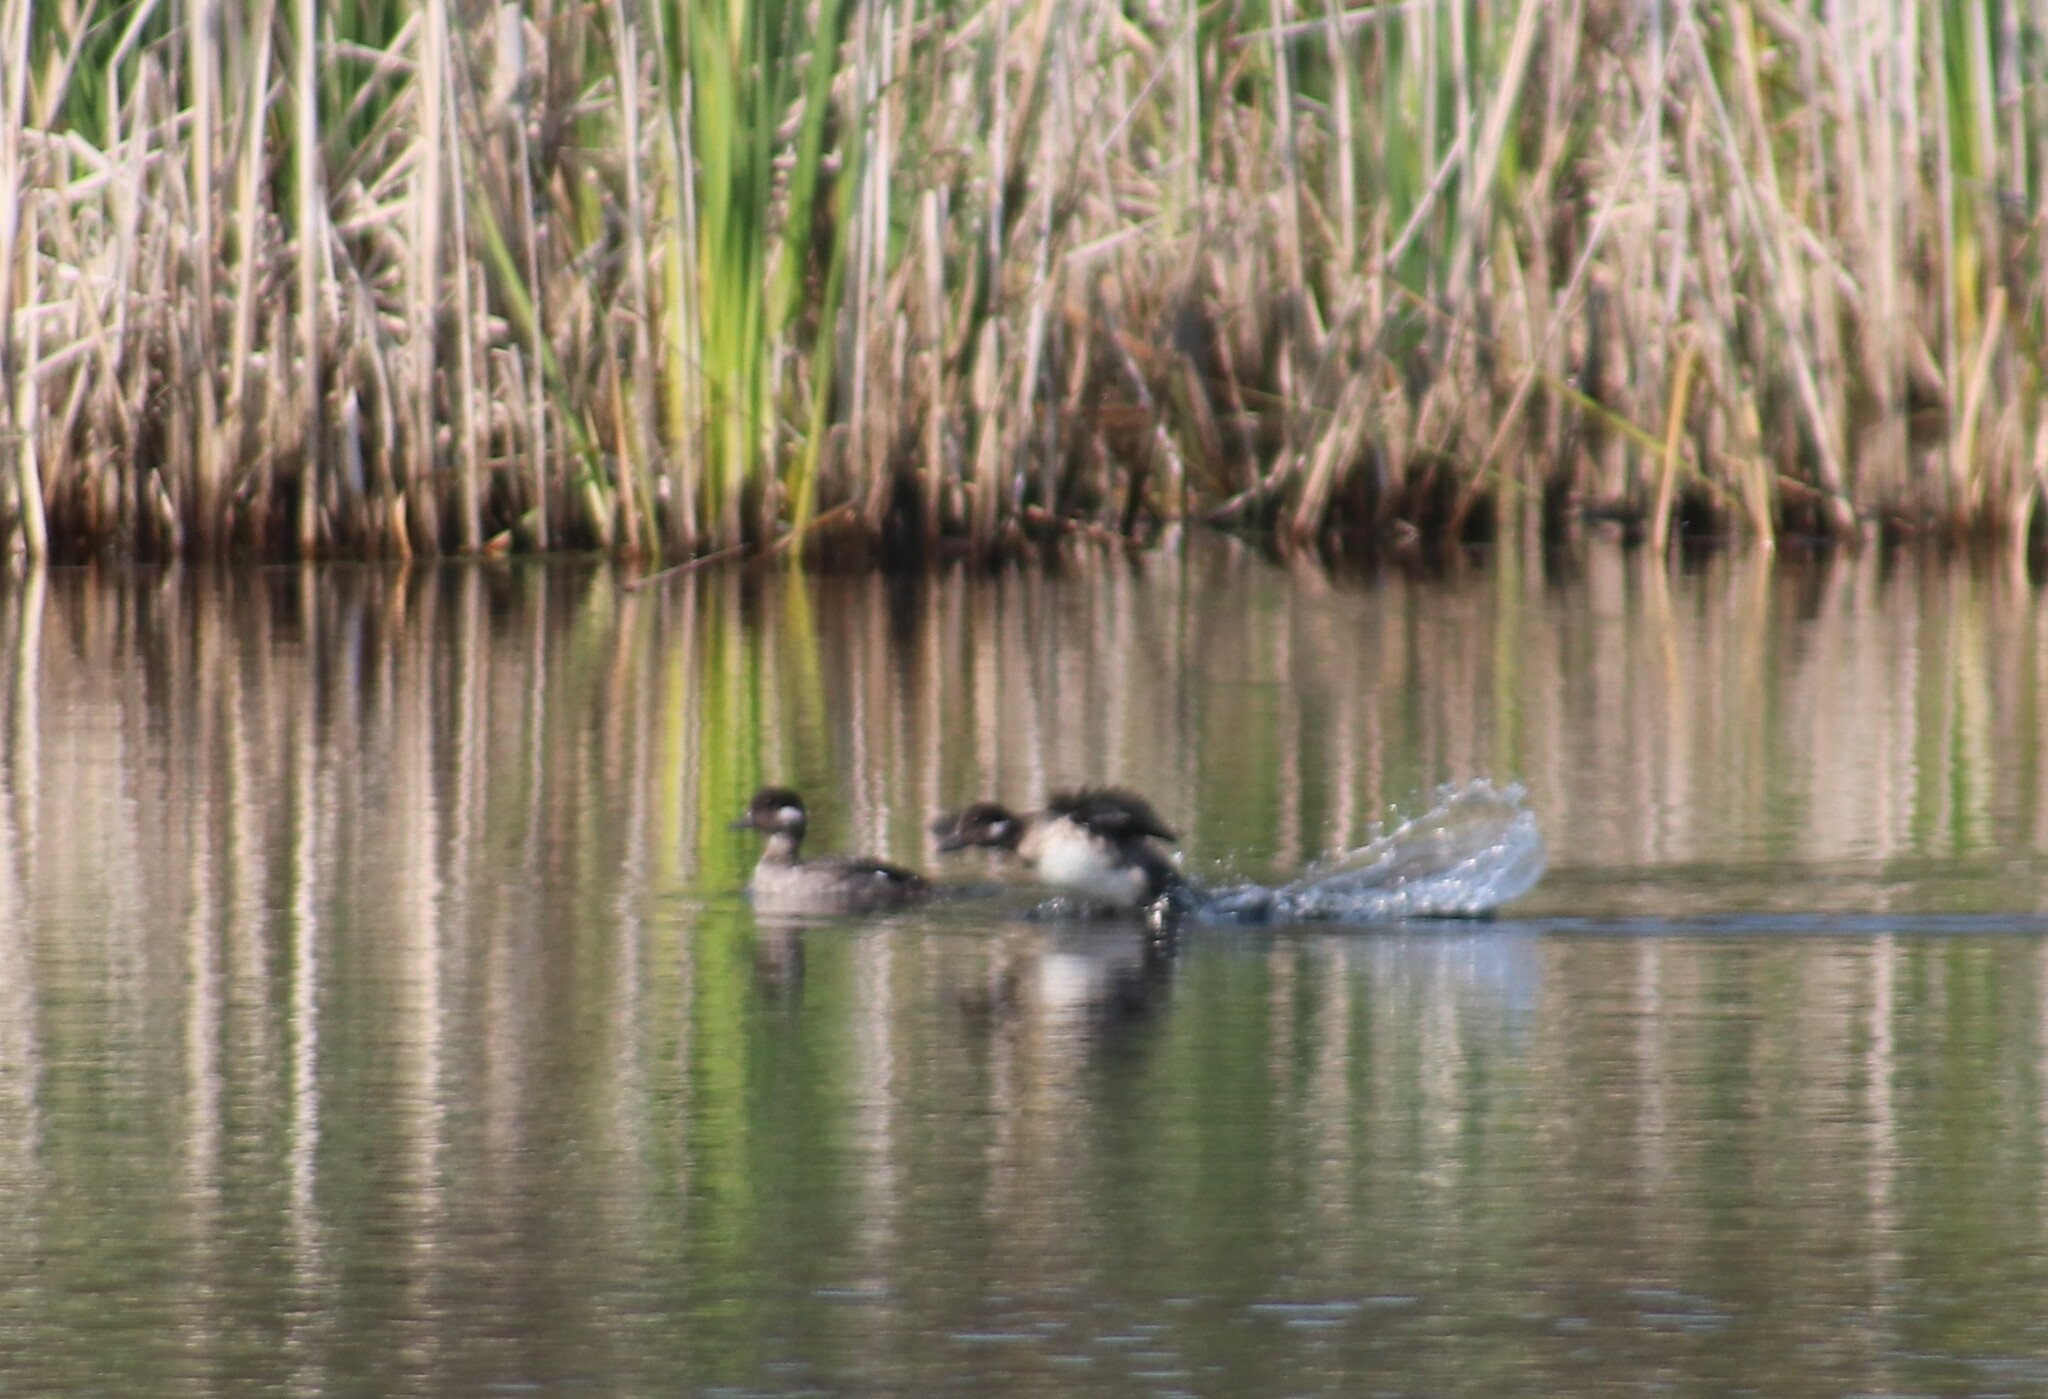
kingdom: Animalia
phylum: Chordata
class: Aves
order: Anseriformes
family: Anatidae
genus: Bucephala
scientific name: Bucephala albeola
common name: Bufflehead
